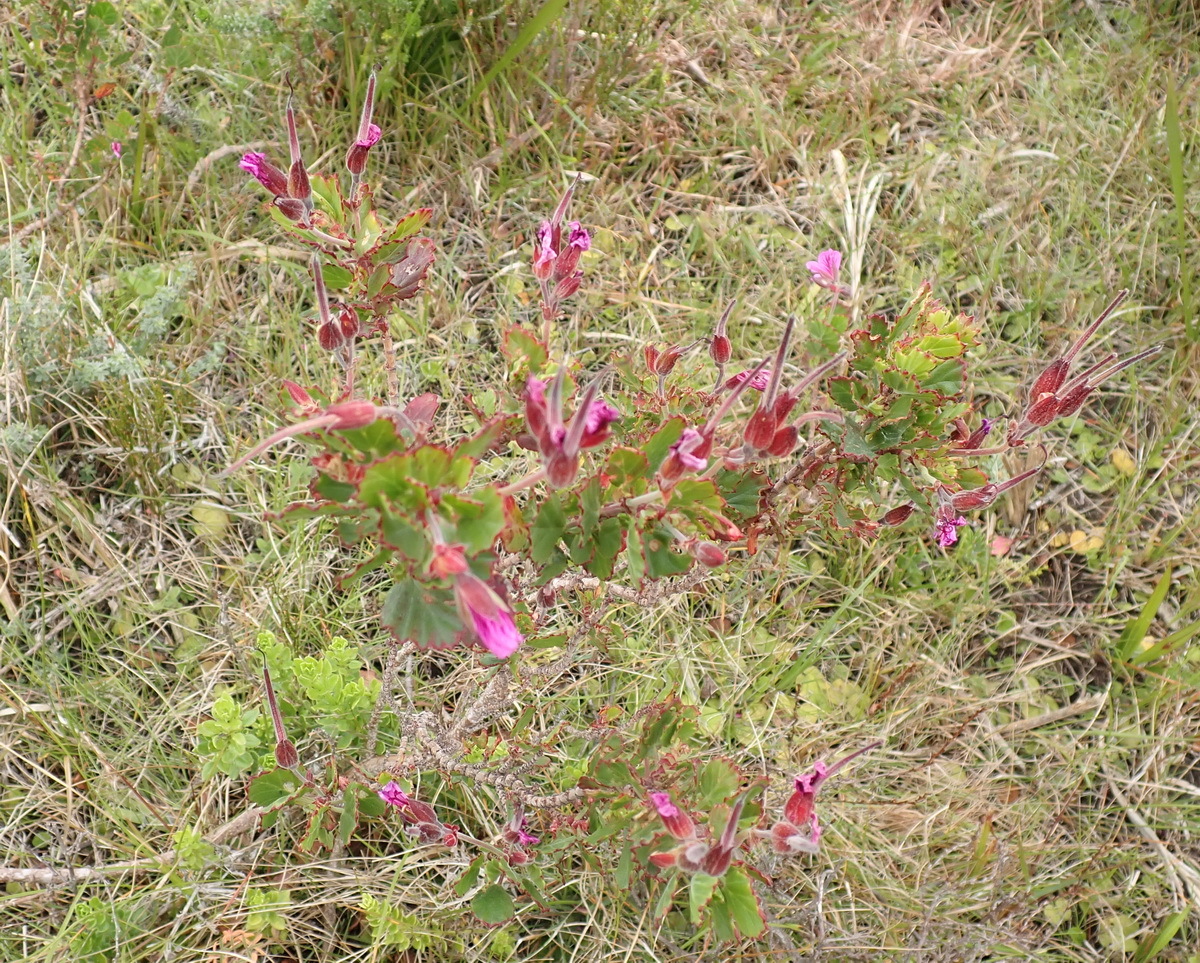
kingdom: Plantae
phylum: Tracheophyta
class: Magnoliopsida
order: Geraniales
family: Geraniaceae
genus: Pelargonium
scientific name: Pelargonium betulinum
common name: Birch-leaf pelargonium
